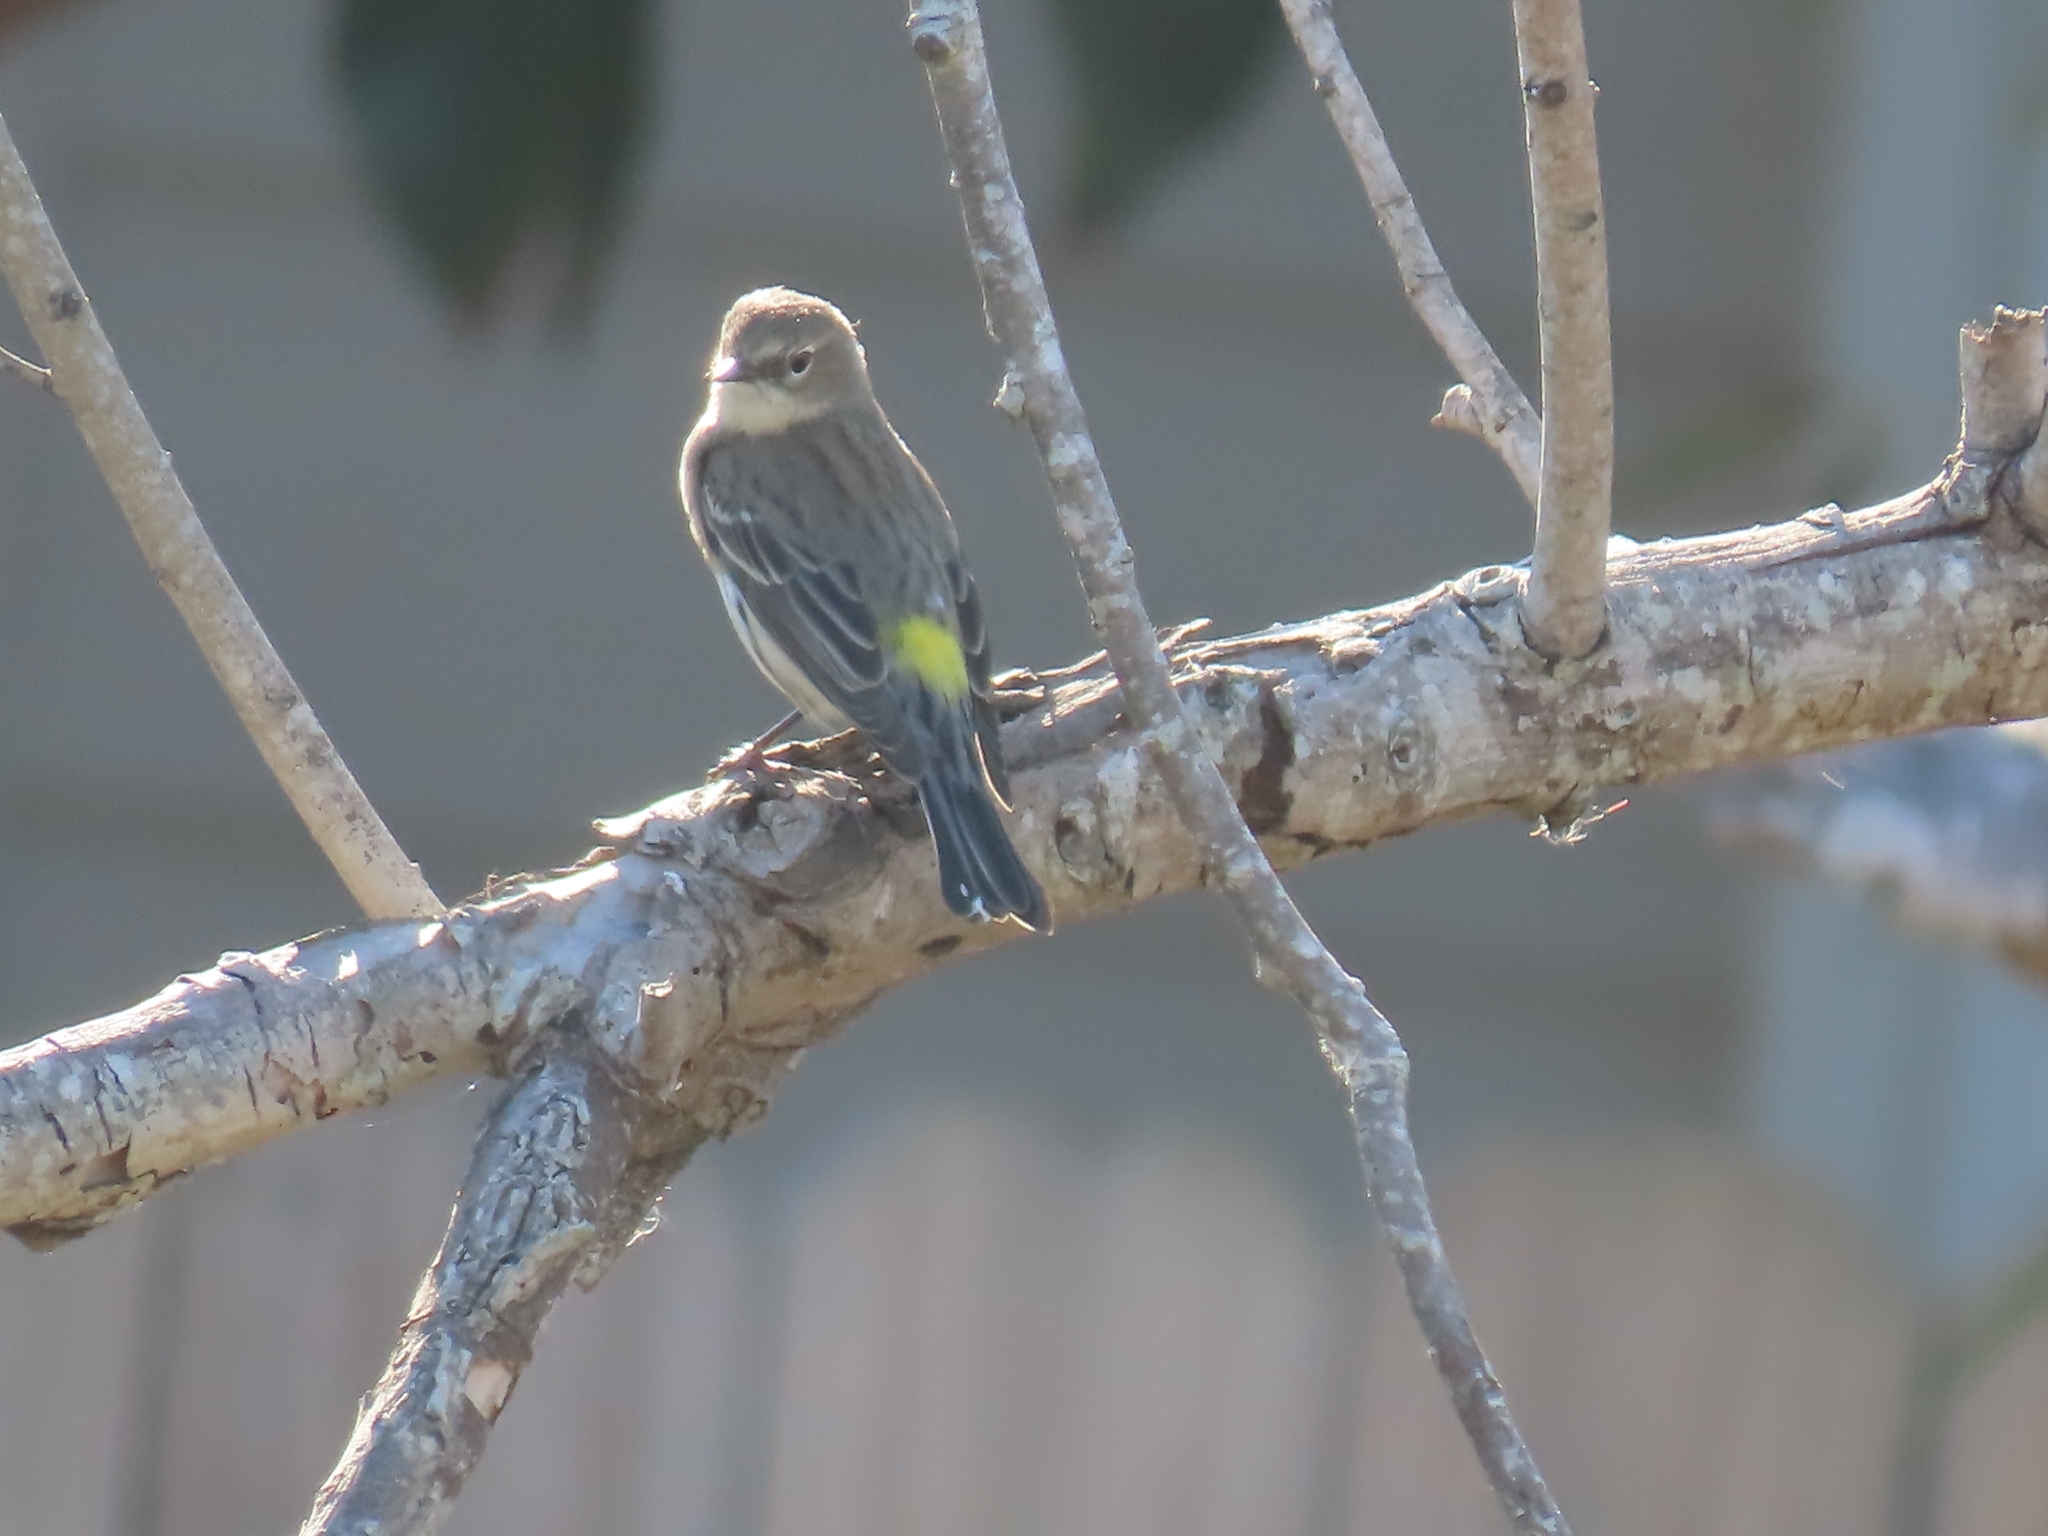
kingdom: Animalia
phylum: Chordata
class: Aves
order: Passeriformes
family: Parulidae
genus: Setophaga
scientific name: Setophaga coronata
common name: Myrtle warbler
